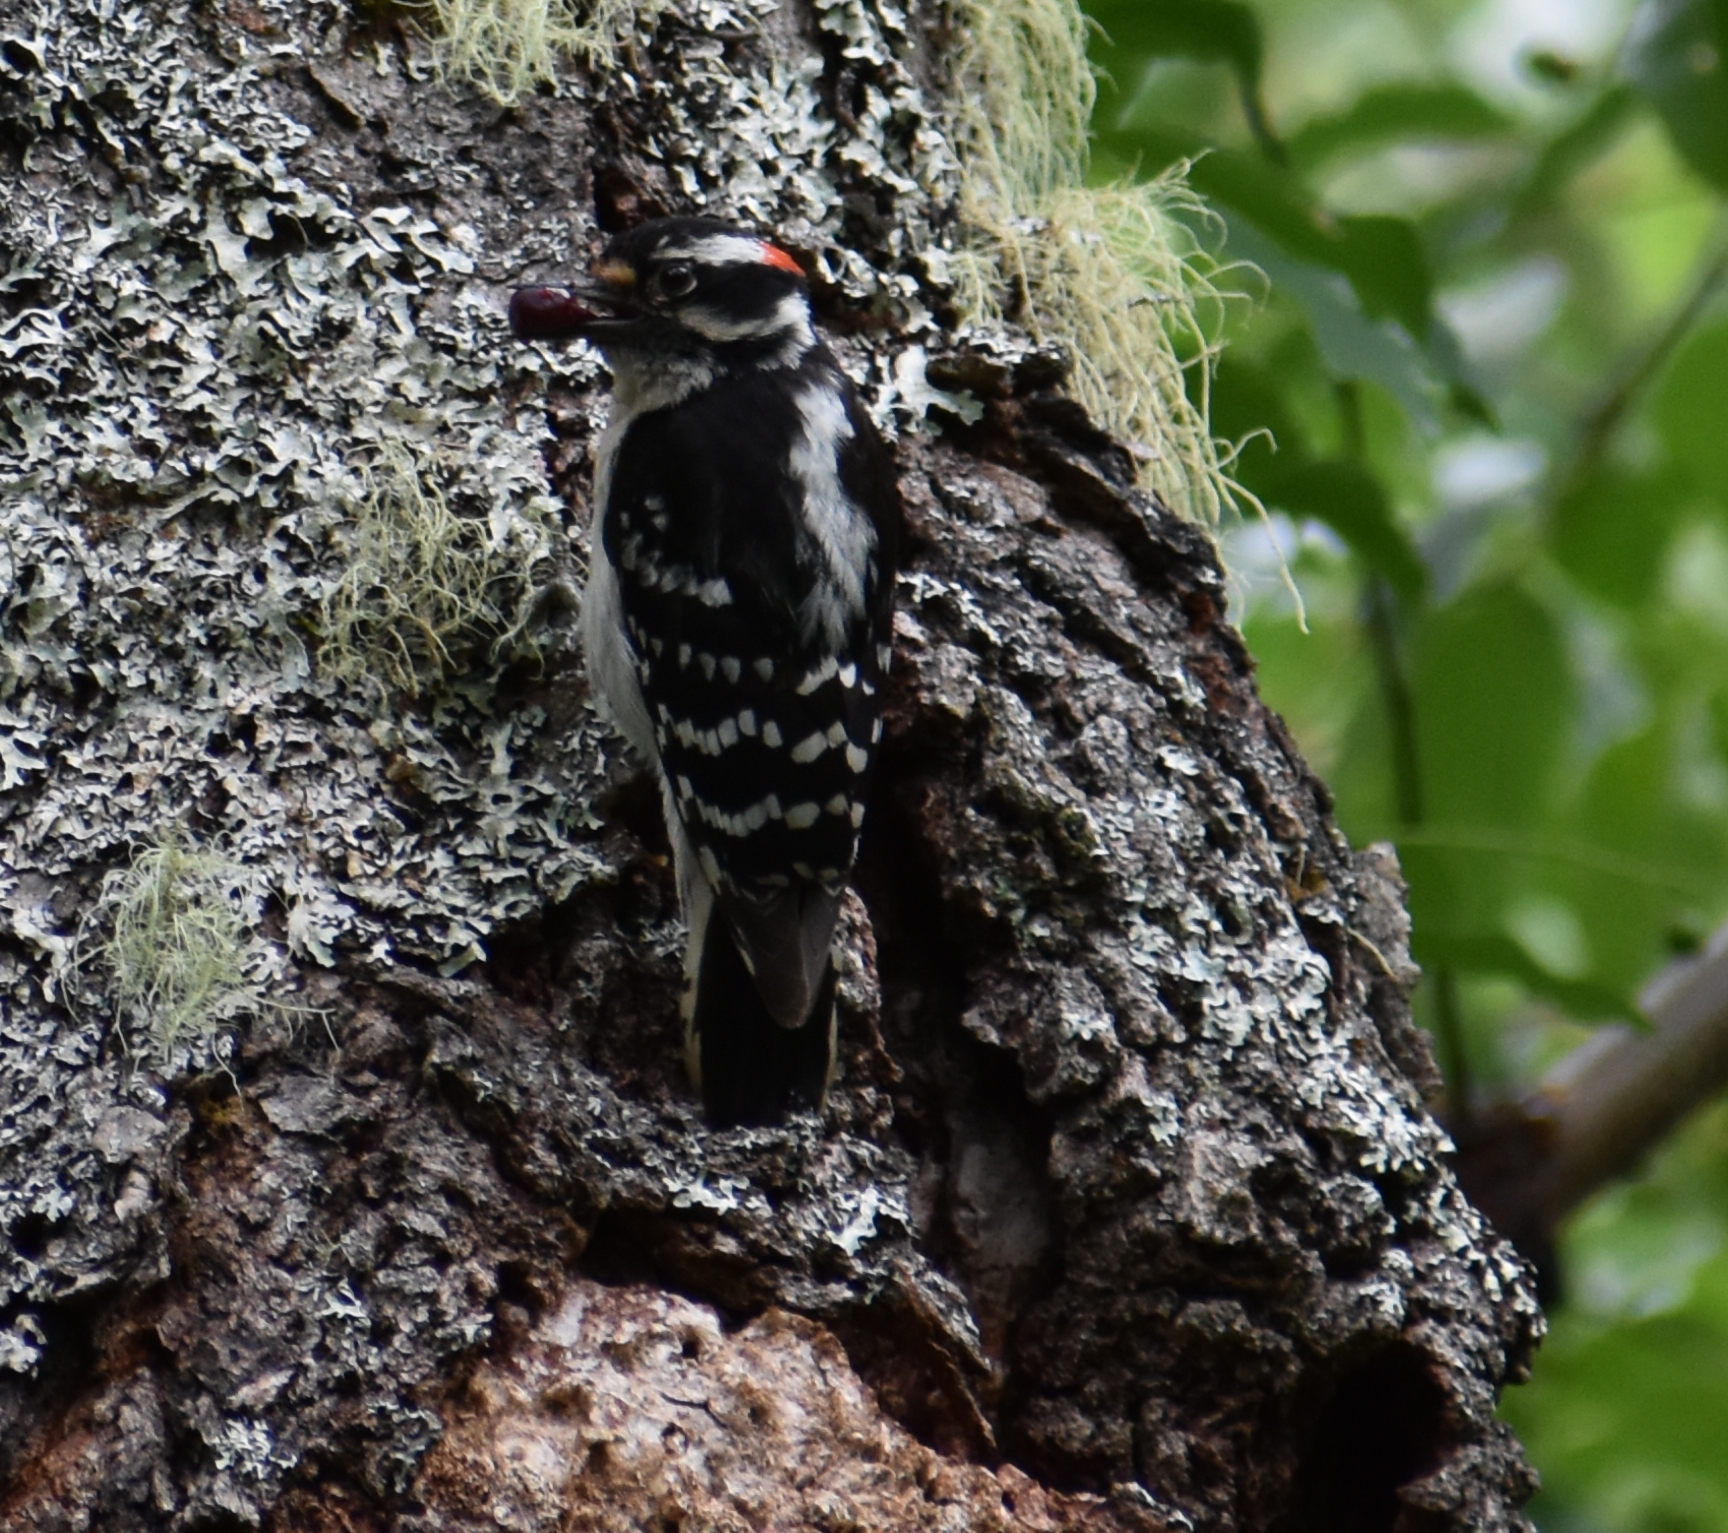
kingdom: Animalia
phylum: Chordata
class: Aves
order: Piciformes
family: Picidae
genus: Dryobates
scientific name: Dryobates pubescens
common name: Downy woodpecker
